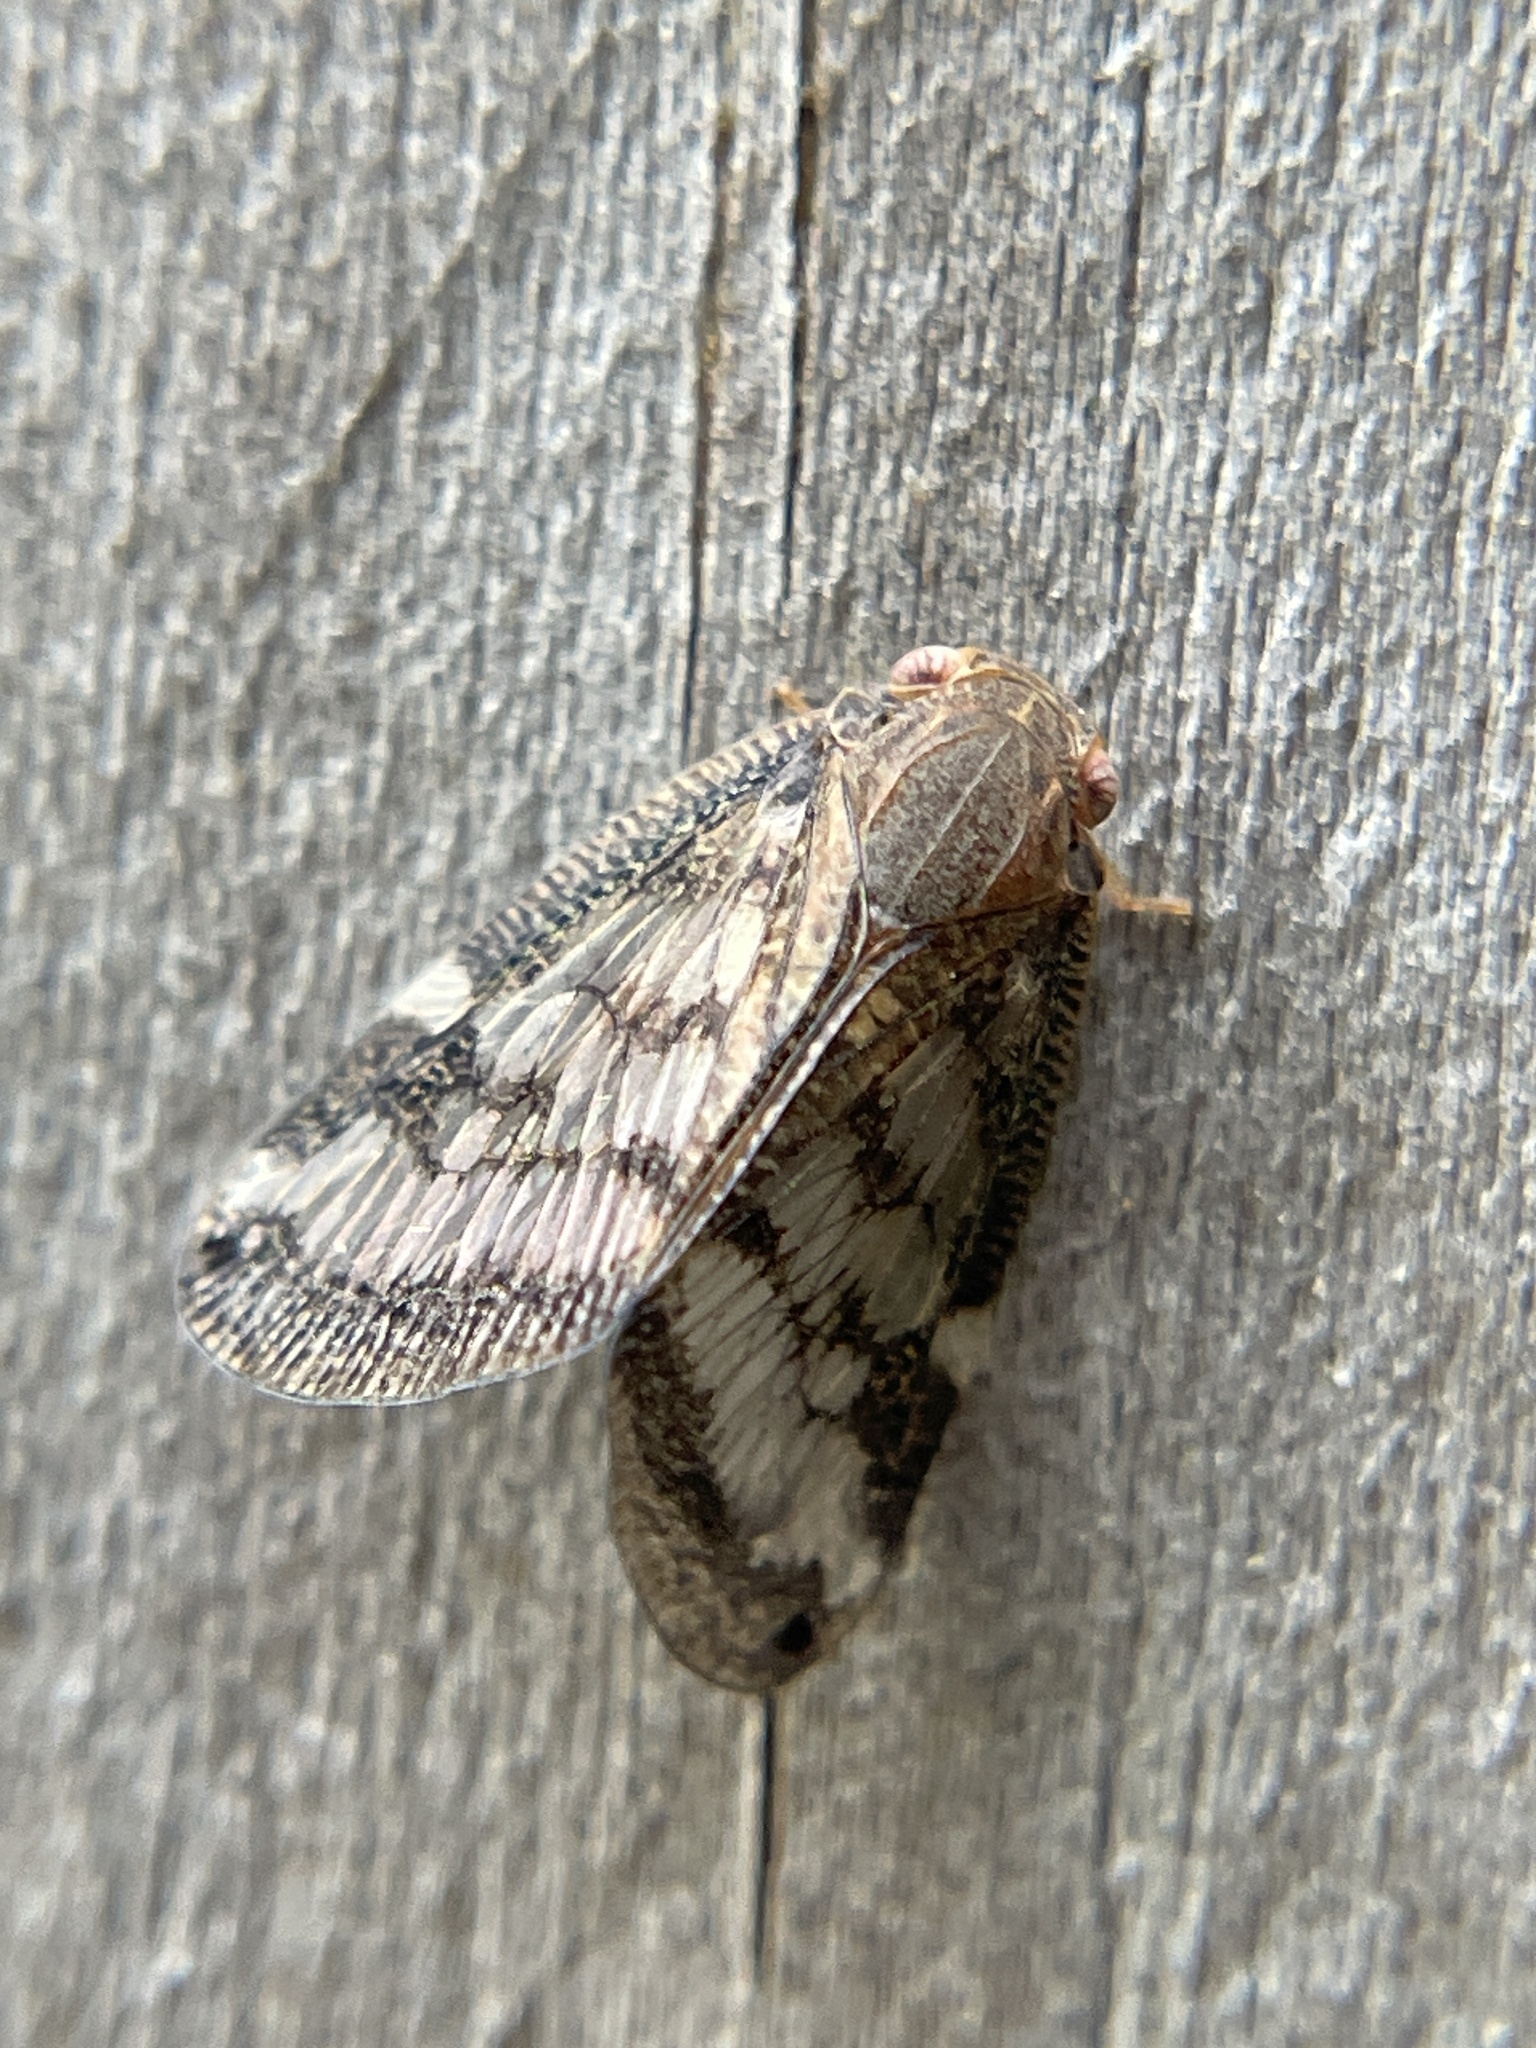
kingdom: Animalia
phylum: Arthropoda
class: Insecta
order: Hemiptera
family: Ricaniidae
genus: Scolypopa
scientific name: Scolypopa australis
